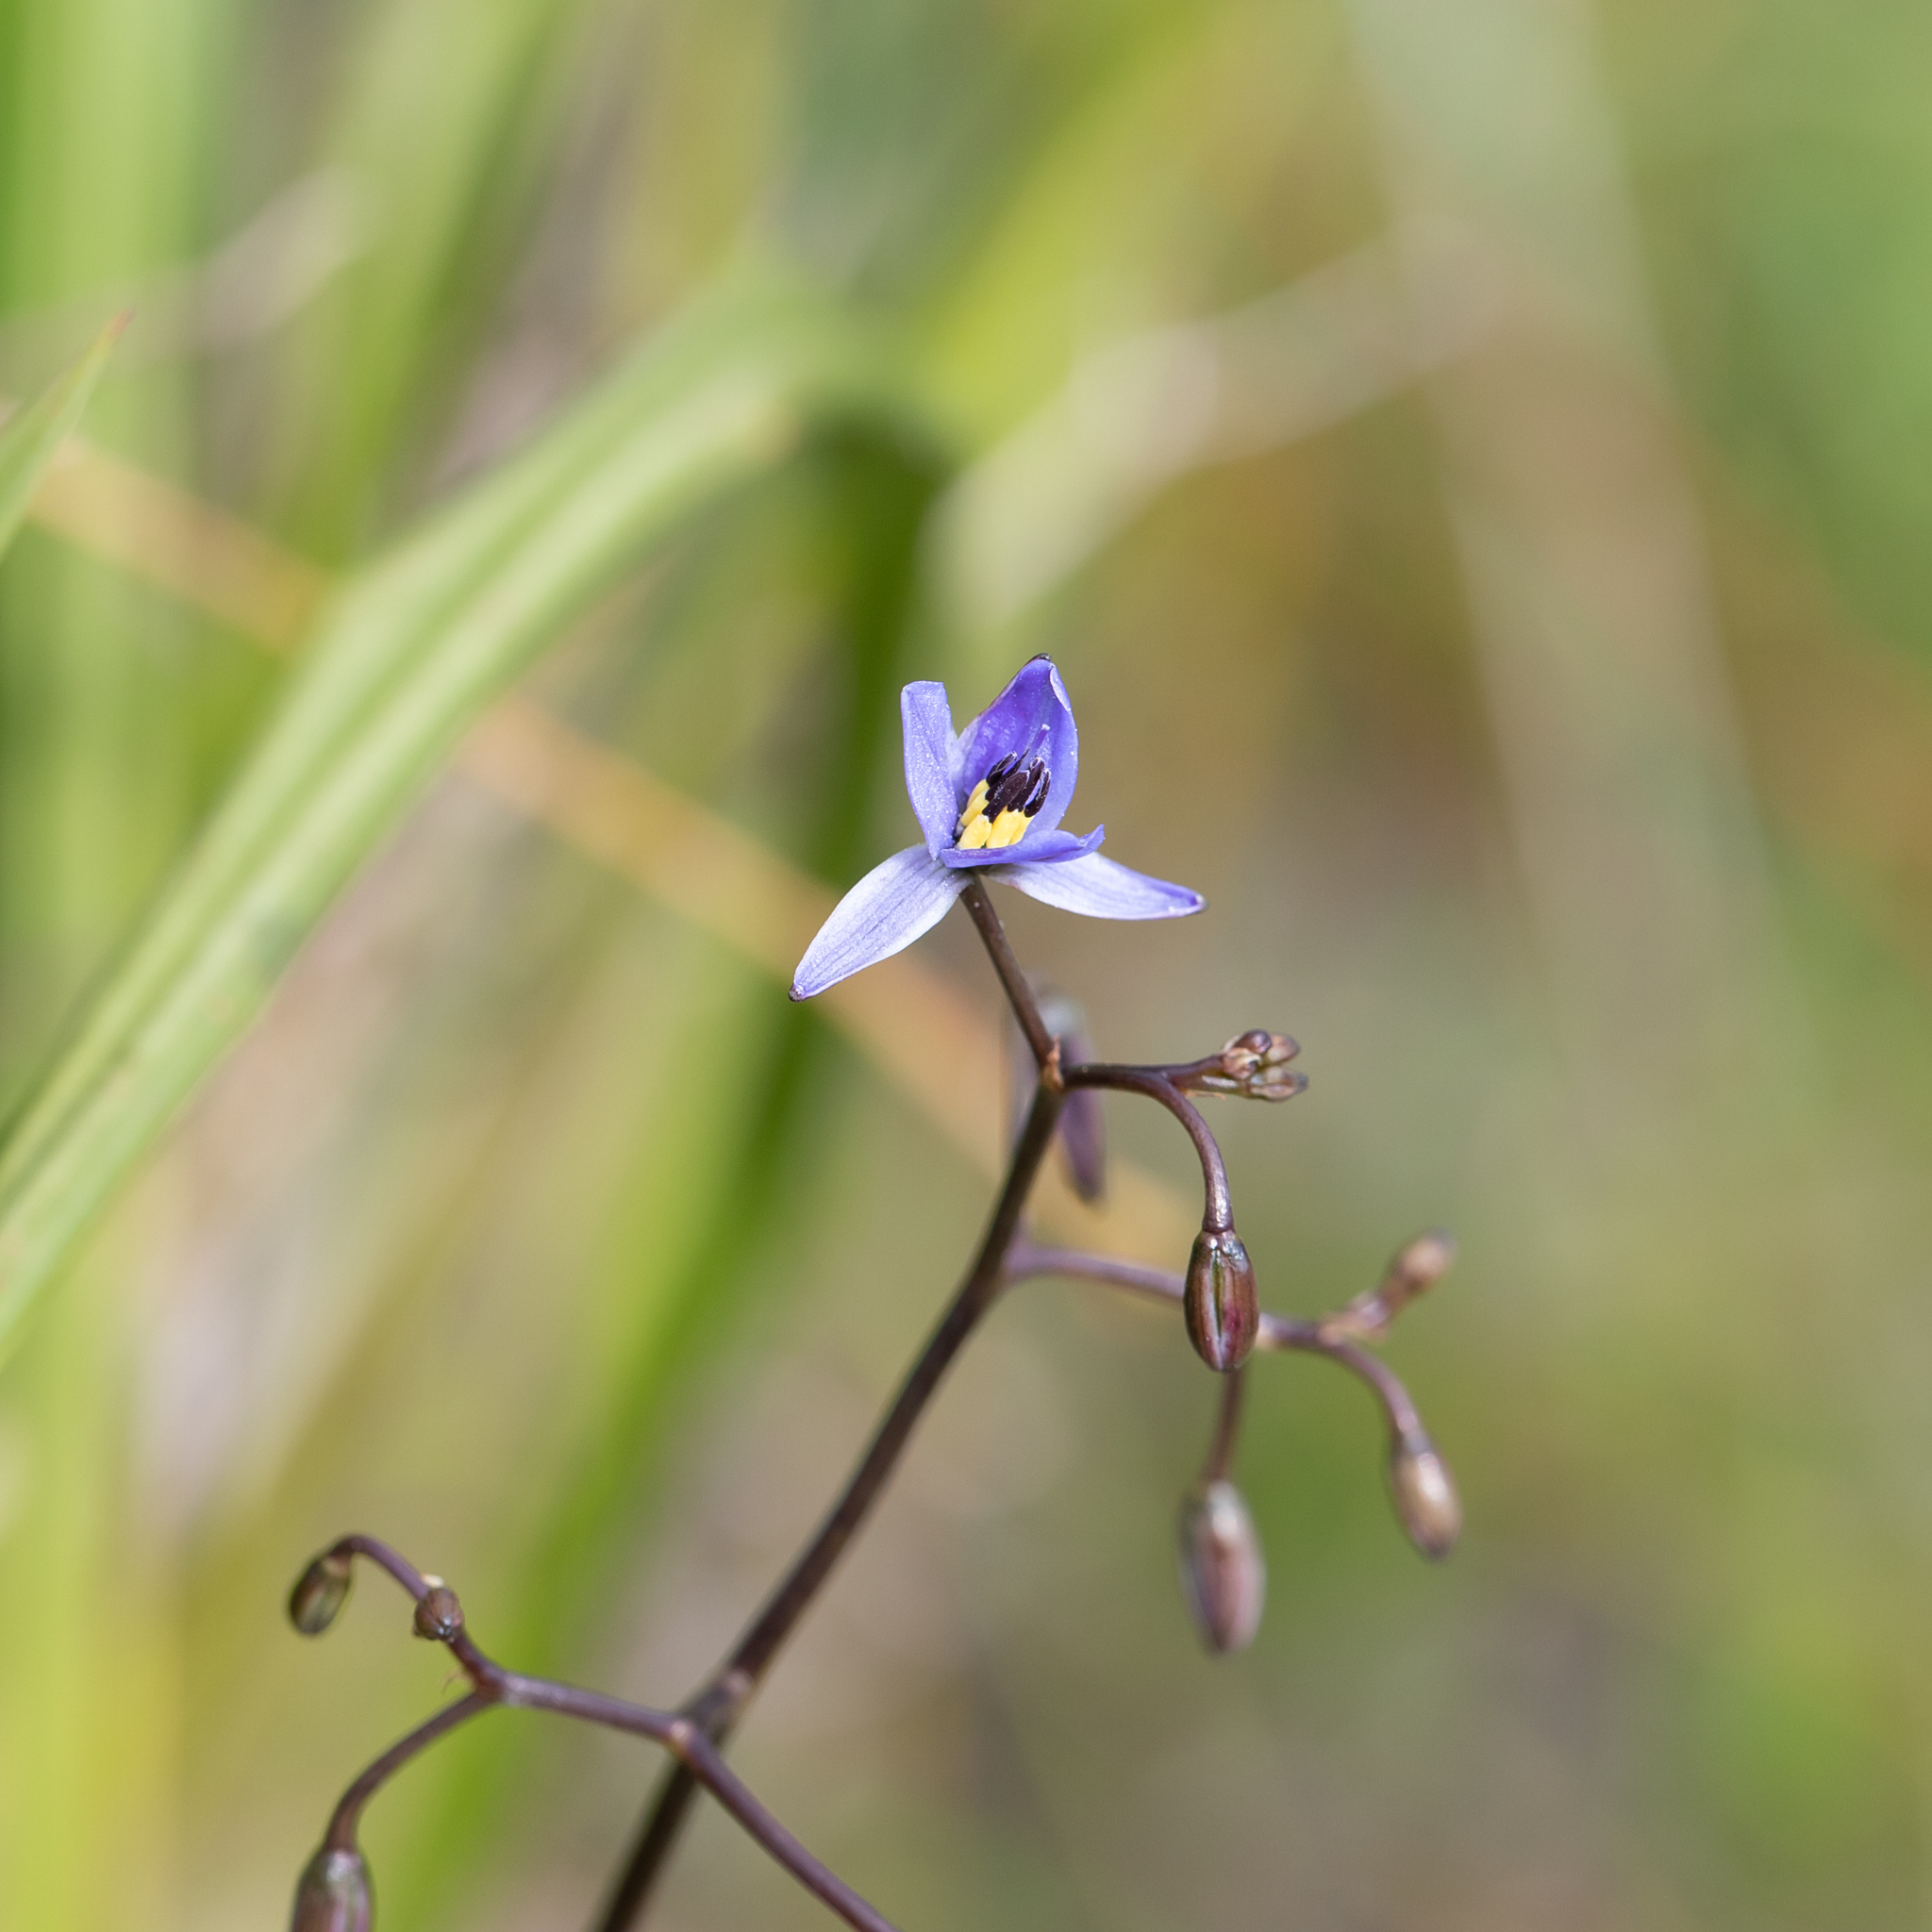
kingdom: Plantae
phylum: Tracheophyta
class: Liliopsida
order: Asparagales
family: Asphodelaceae
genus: Dianella
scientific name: Dianella brevicaulis
